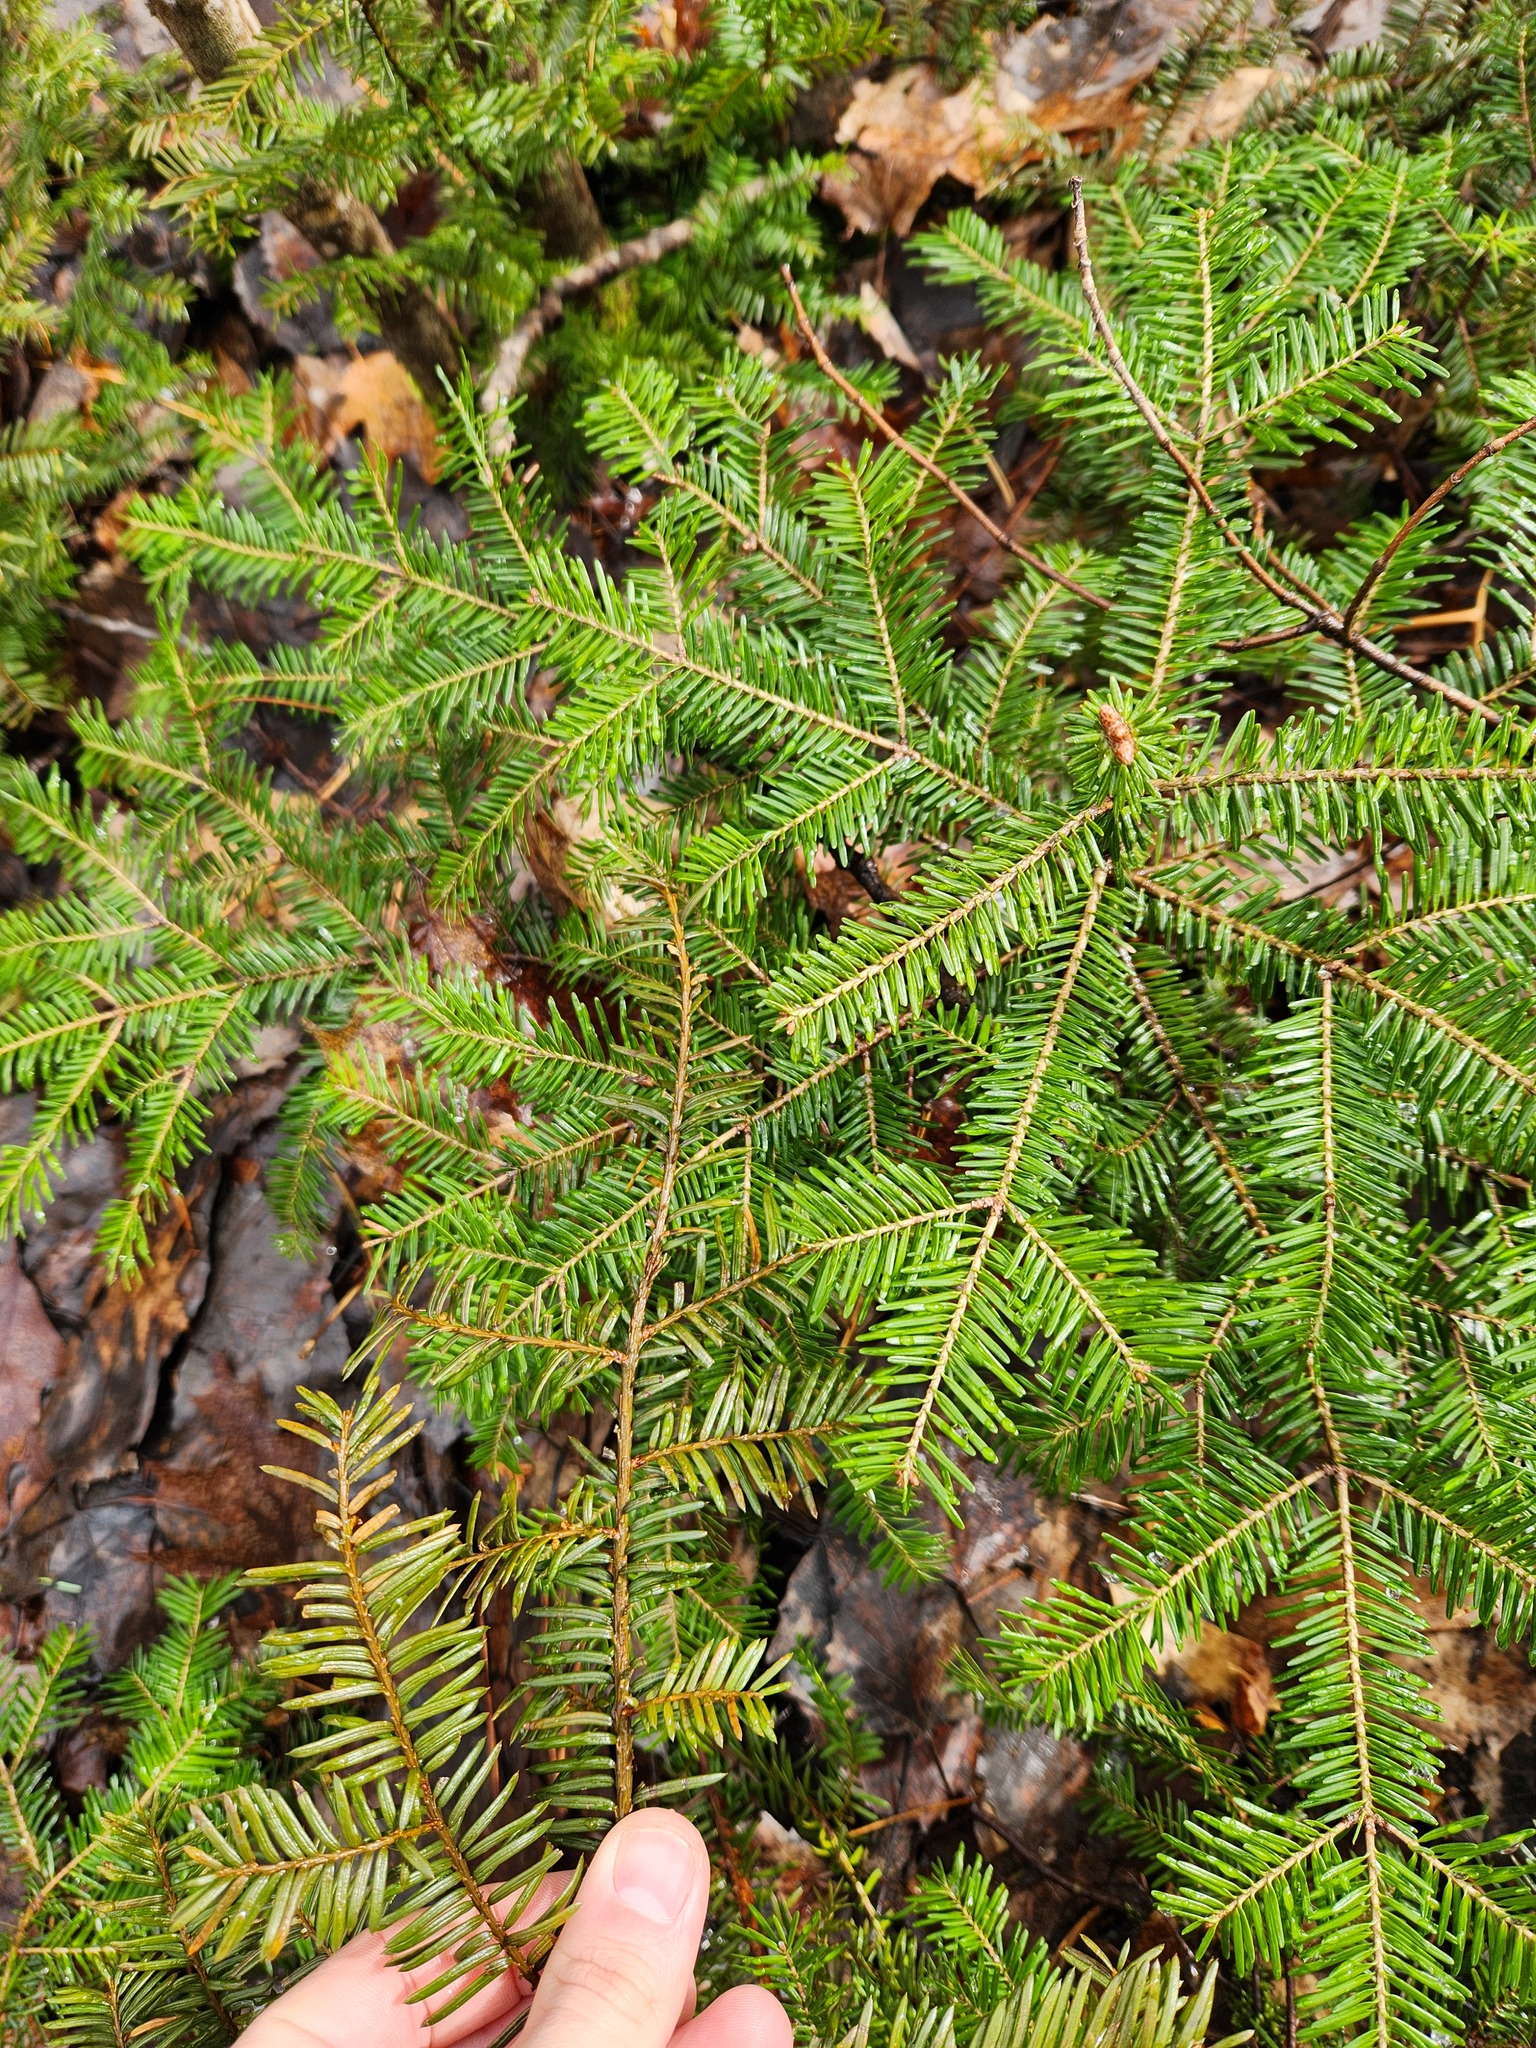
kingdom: Plantae
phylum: Tracheophyta
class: Pinopsida
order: Pinales
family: Pinaceae
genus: Abies
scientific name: Abies balsamea
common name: Balsam fir
